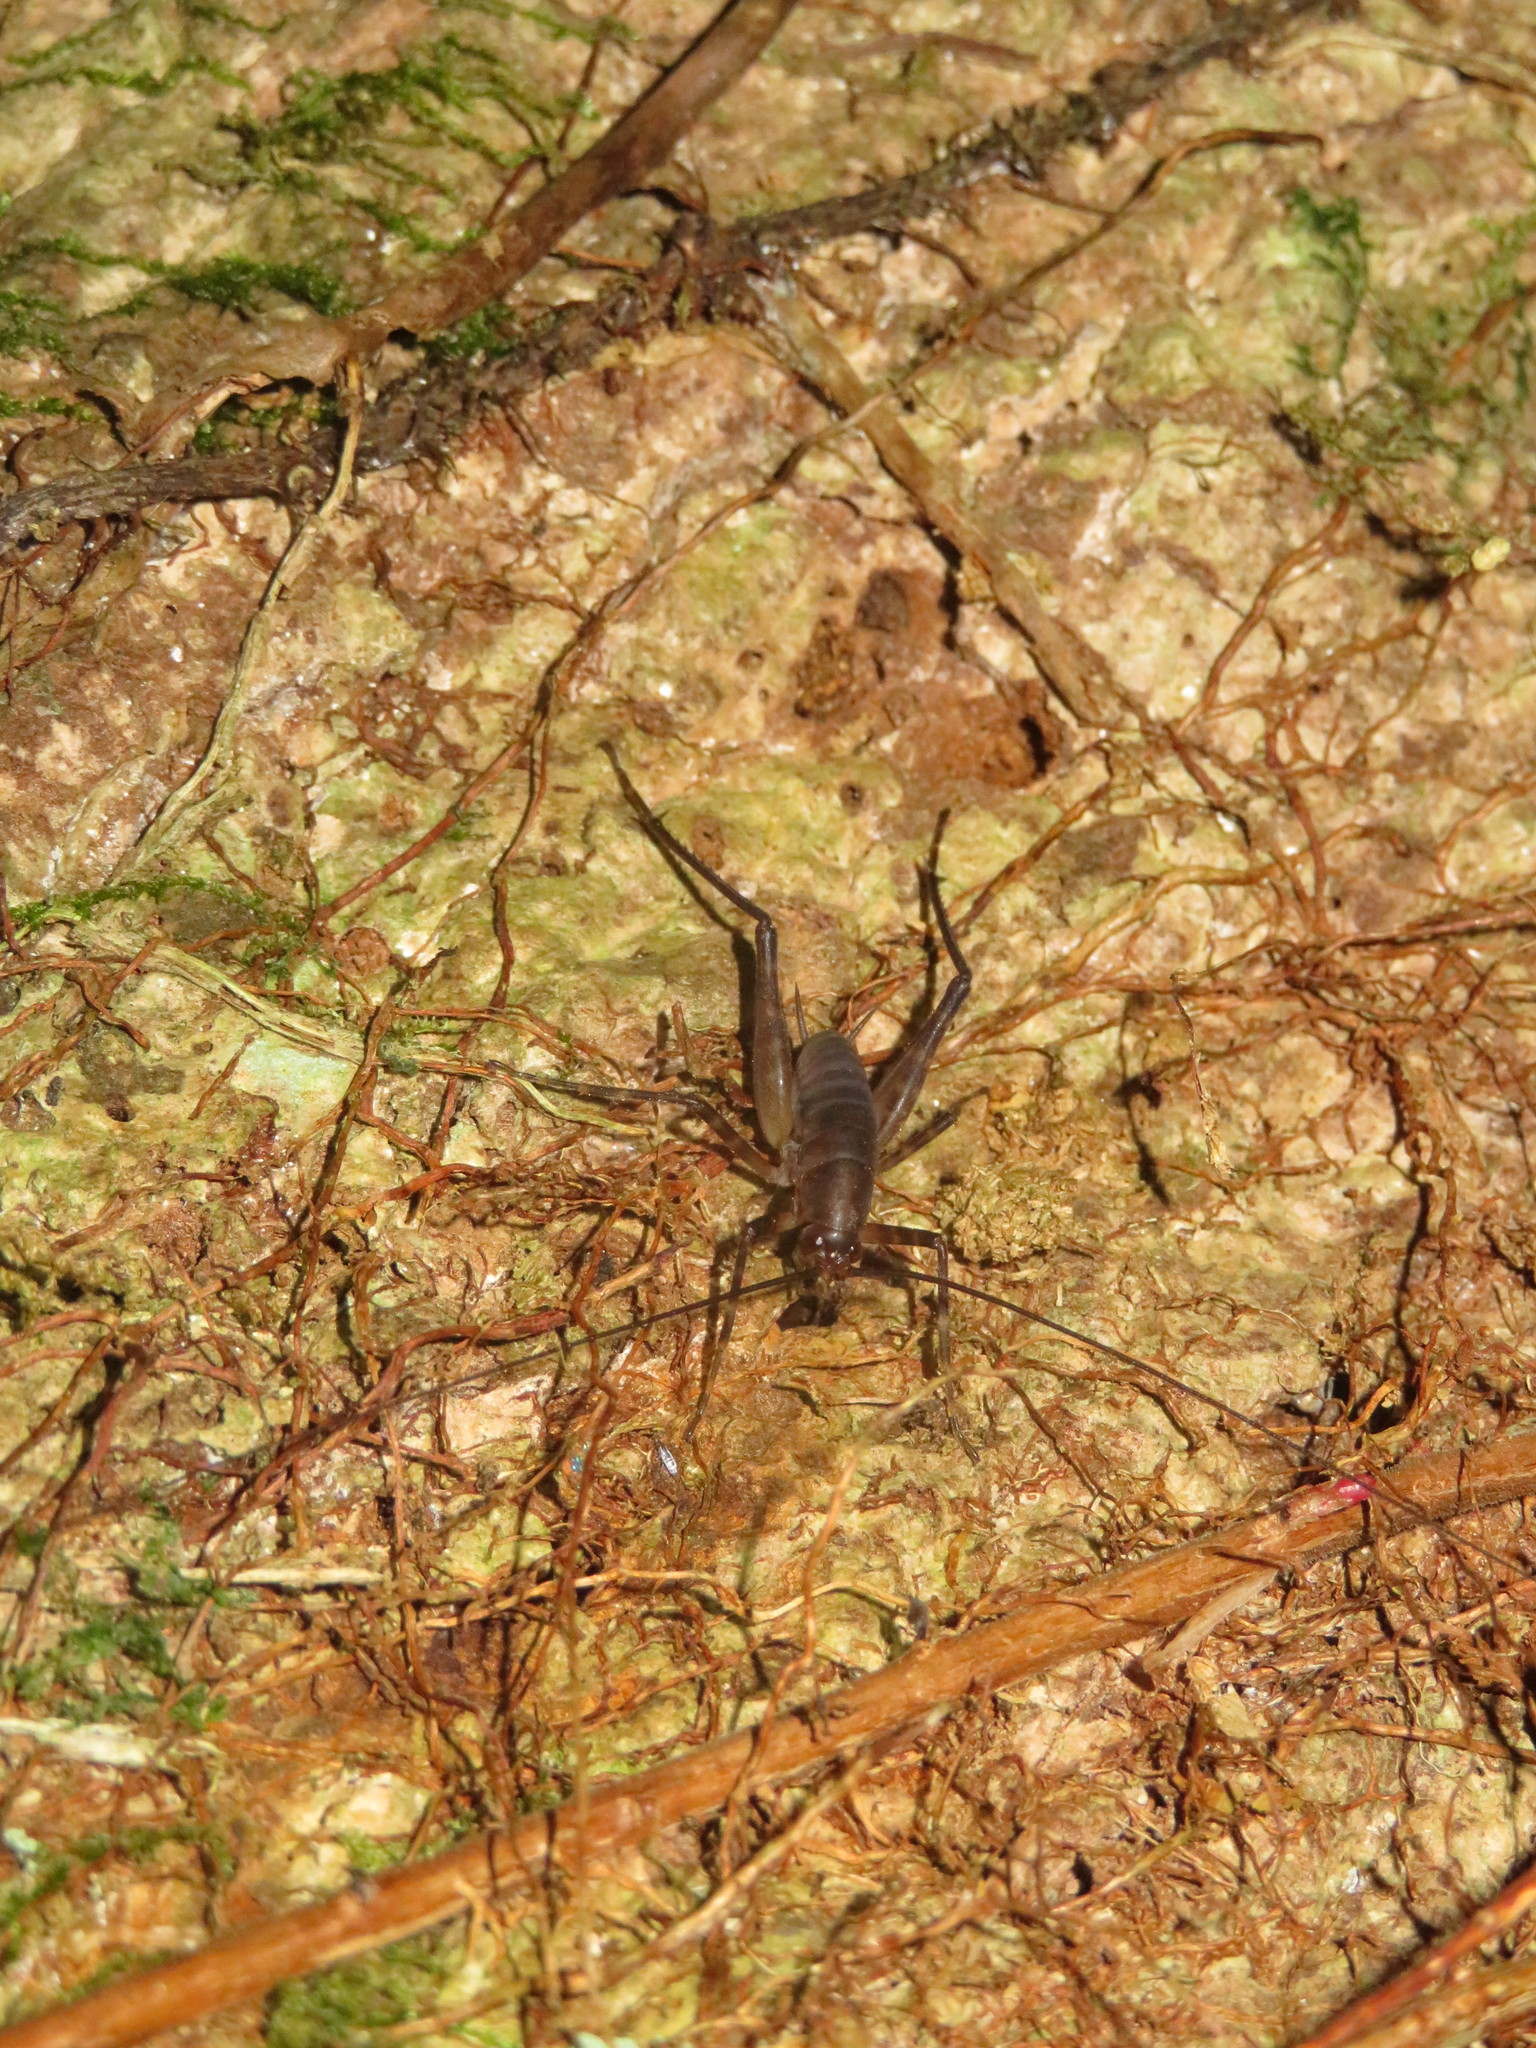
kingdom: Animalia
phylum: Arthropoda
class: Insecta
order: Orthoptera
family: Rhaphidophoridae
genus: Pachyrhamma
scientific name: Pachyrhamma longipes
